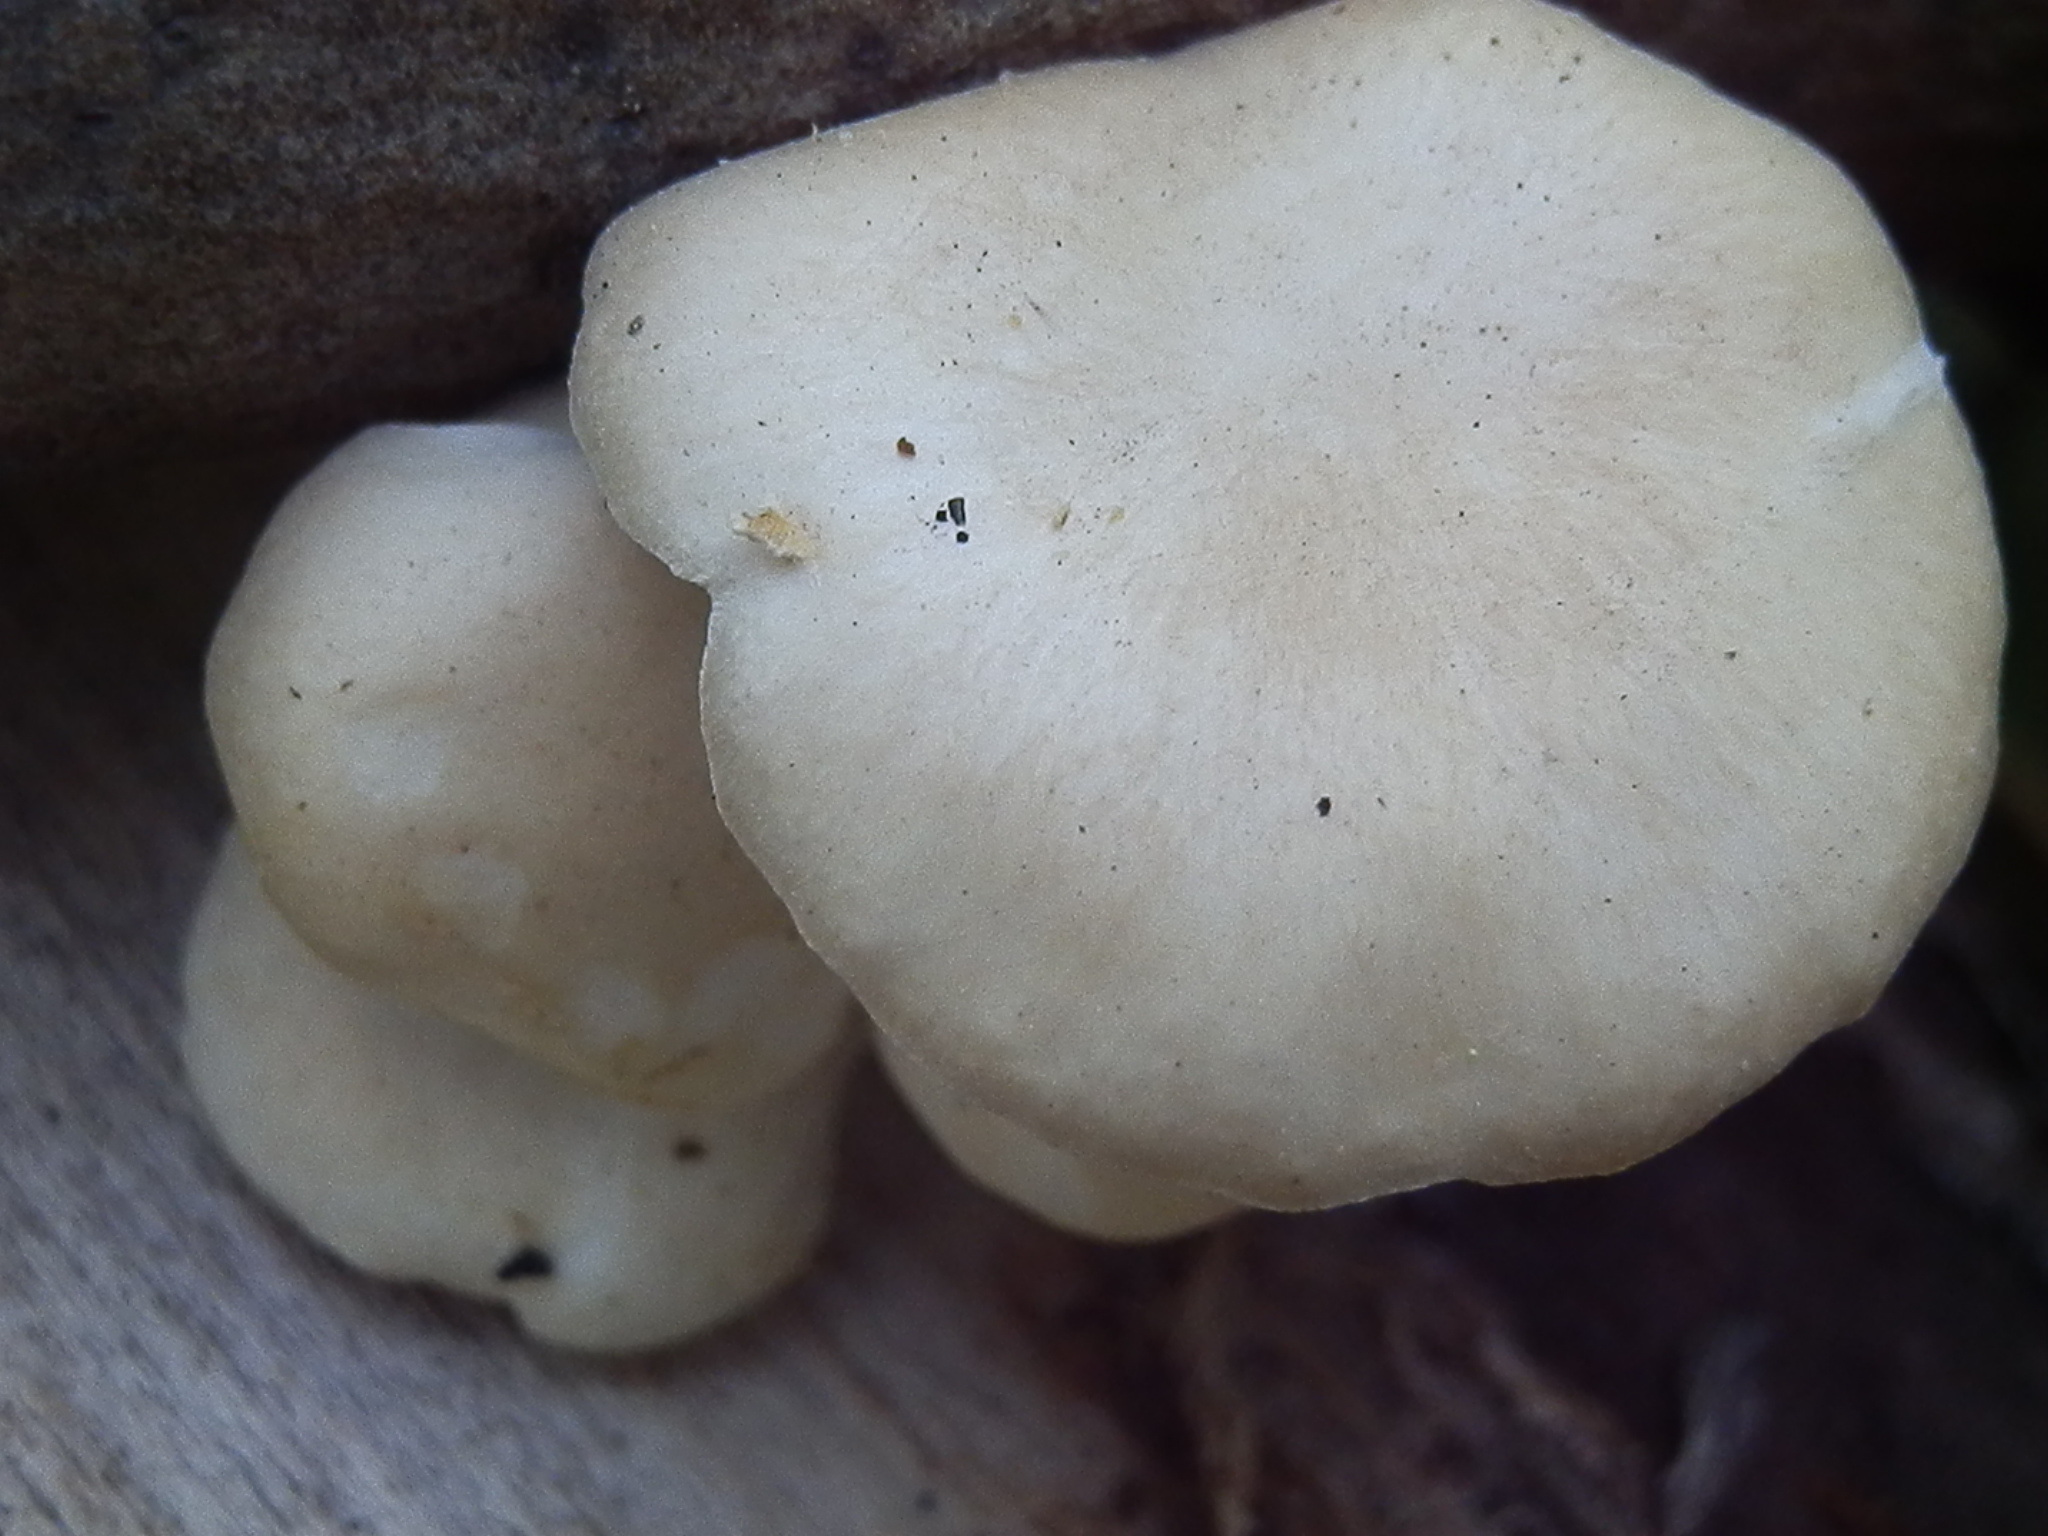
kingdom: Fungi
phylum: Basidiomycota
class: Agaricomycetes
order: Agaricales
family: Pleurotaceae
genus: Pleurotus
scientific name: Pleurotus populinus
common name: Aspen oyster mushroom
